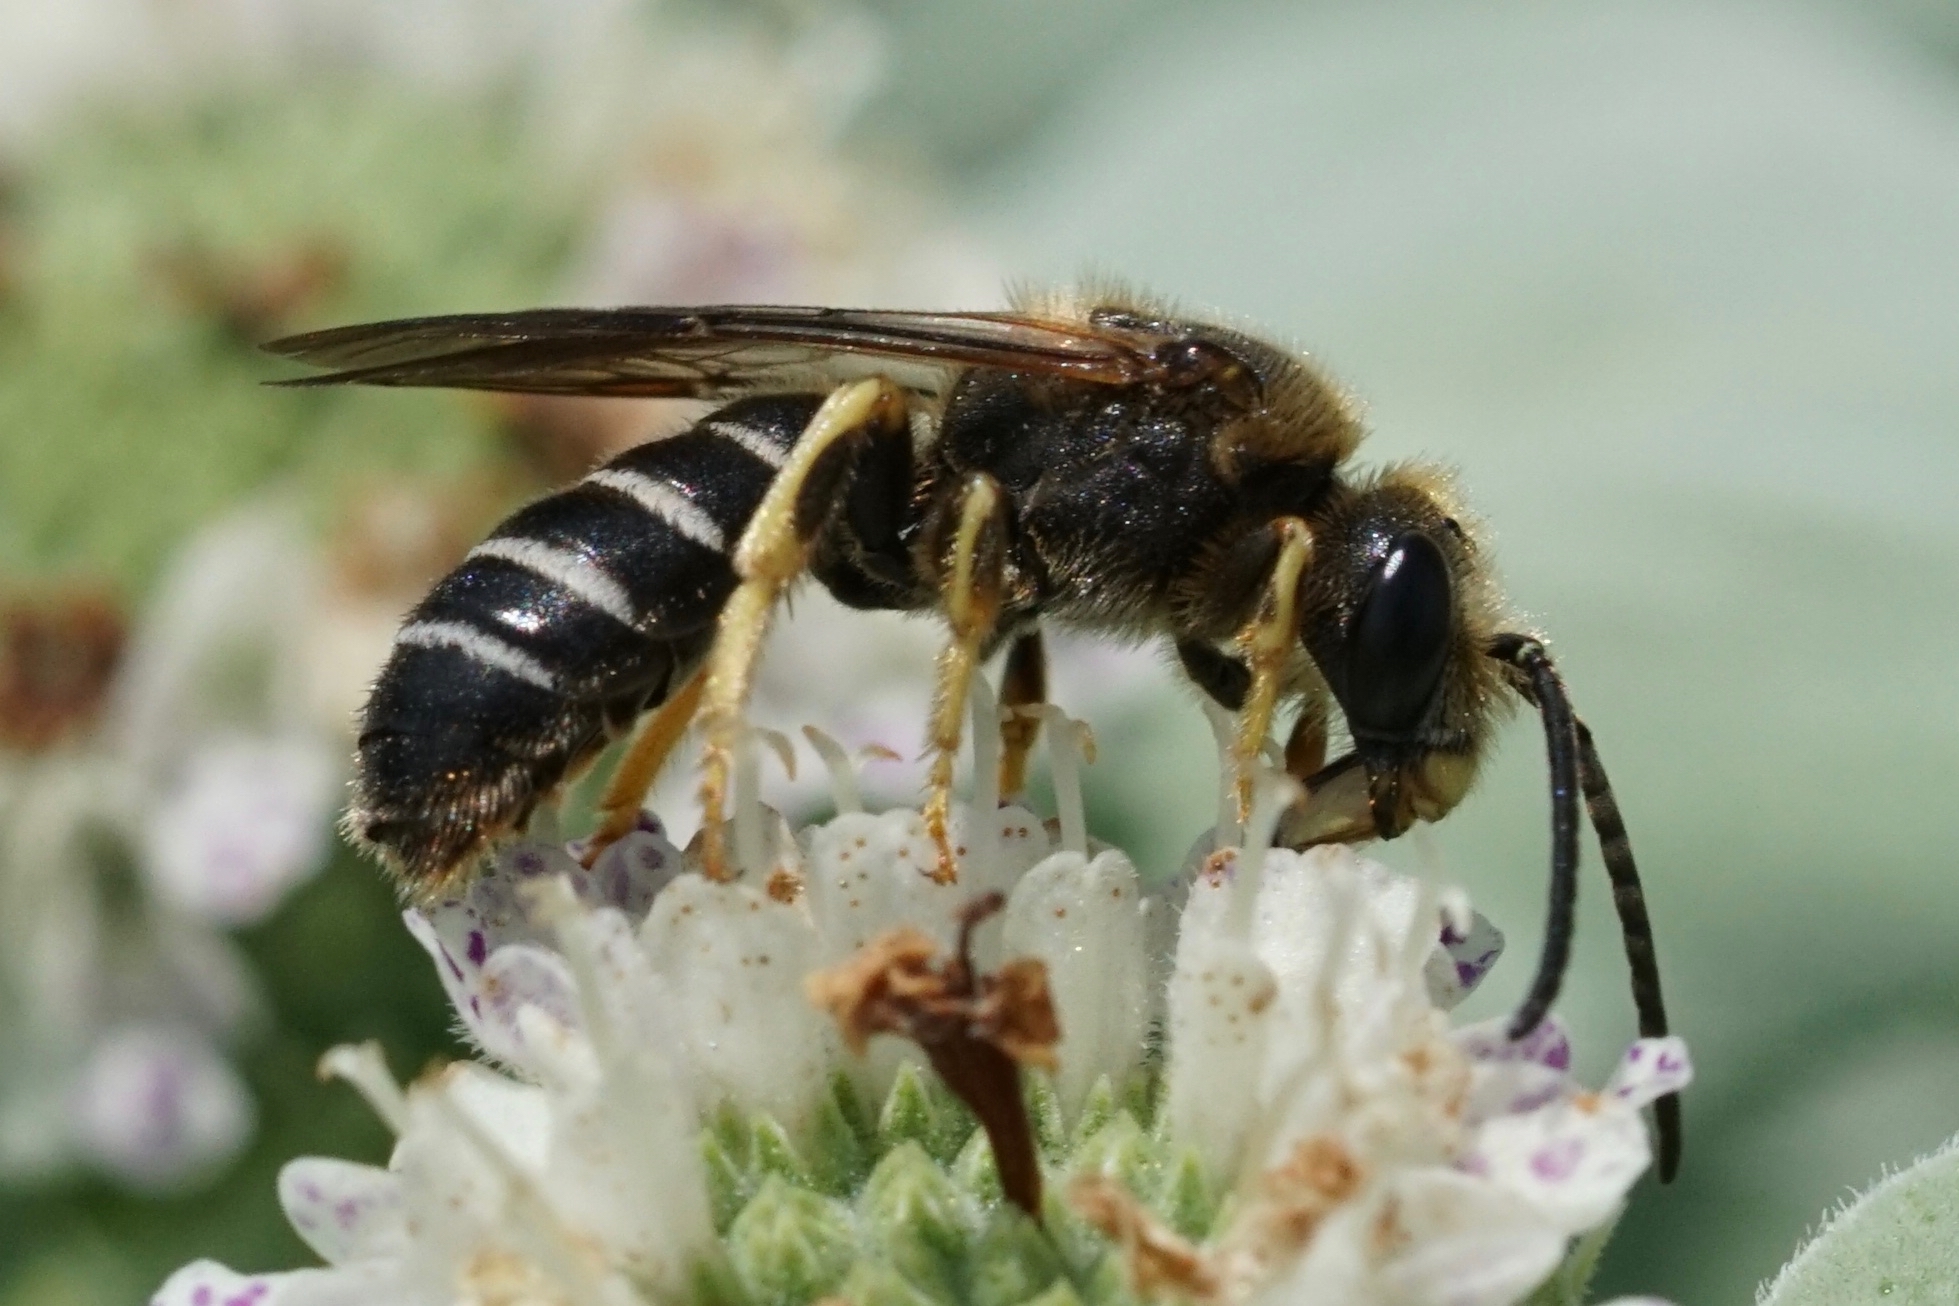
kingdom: Animalia
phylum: Arthropoda
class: Insecta
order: Hymenoptera
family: Halictidae
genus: Halictus
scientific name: Halictus rubicundus
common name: Orange-legged furrow bee
